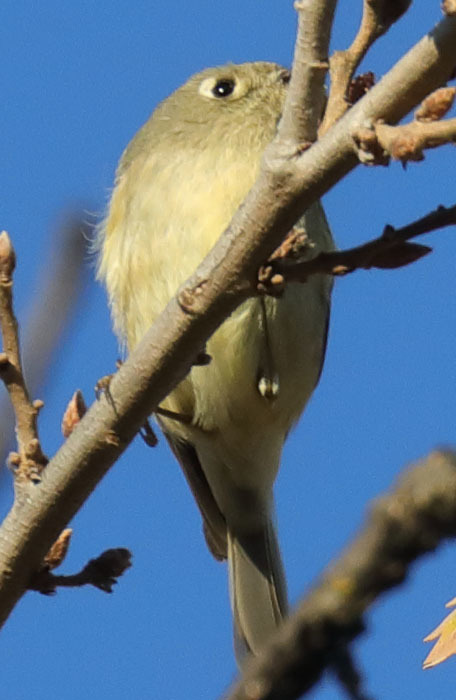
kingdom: Animalia
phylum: Chordata
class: Aves
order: Passeriformes
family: Regulidae
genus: Regulus
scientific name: Regulus calendula
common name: Ruby-crowned kinglet
